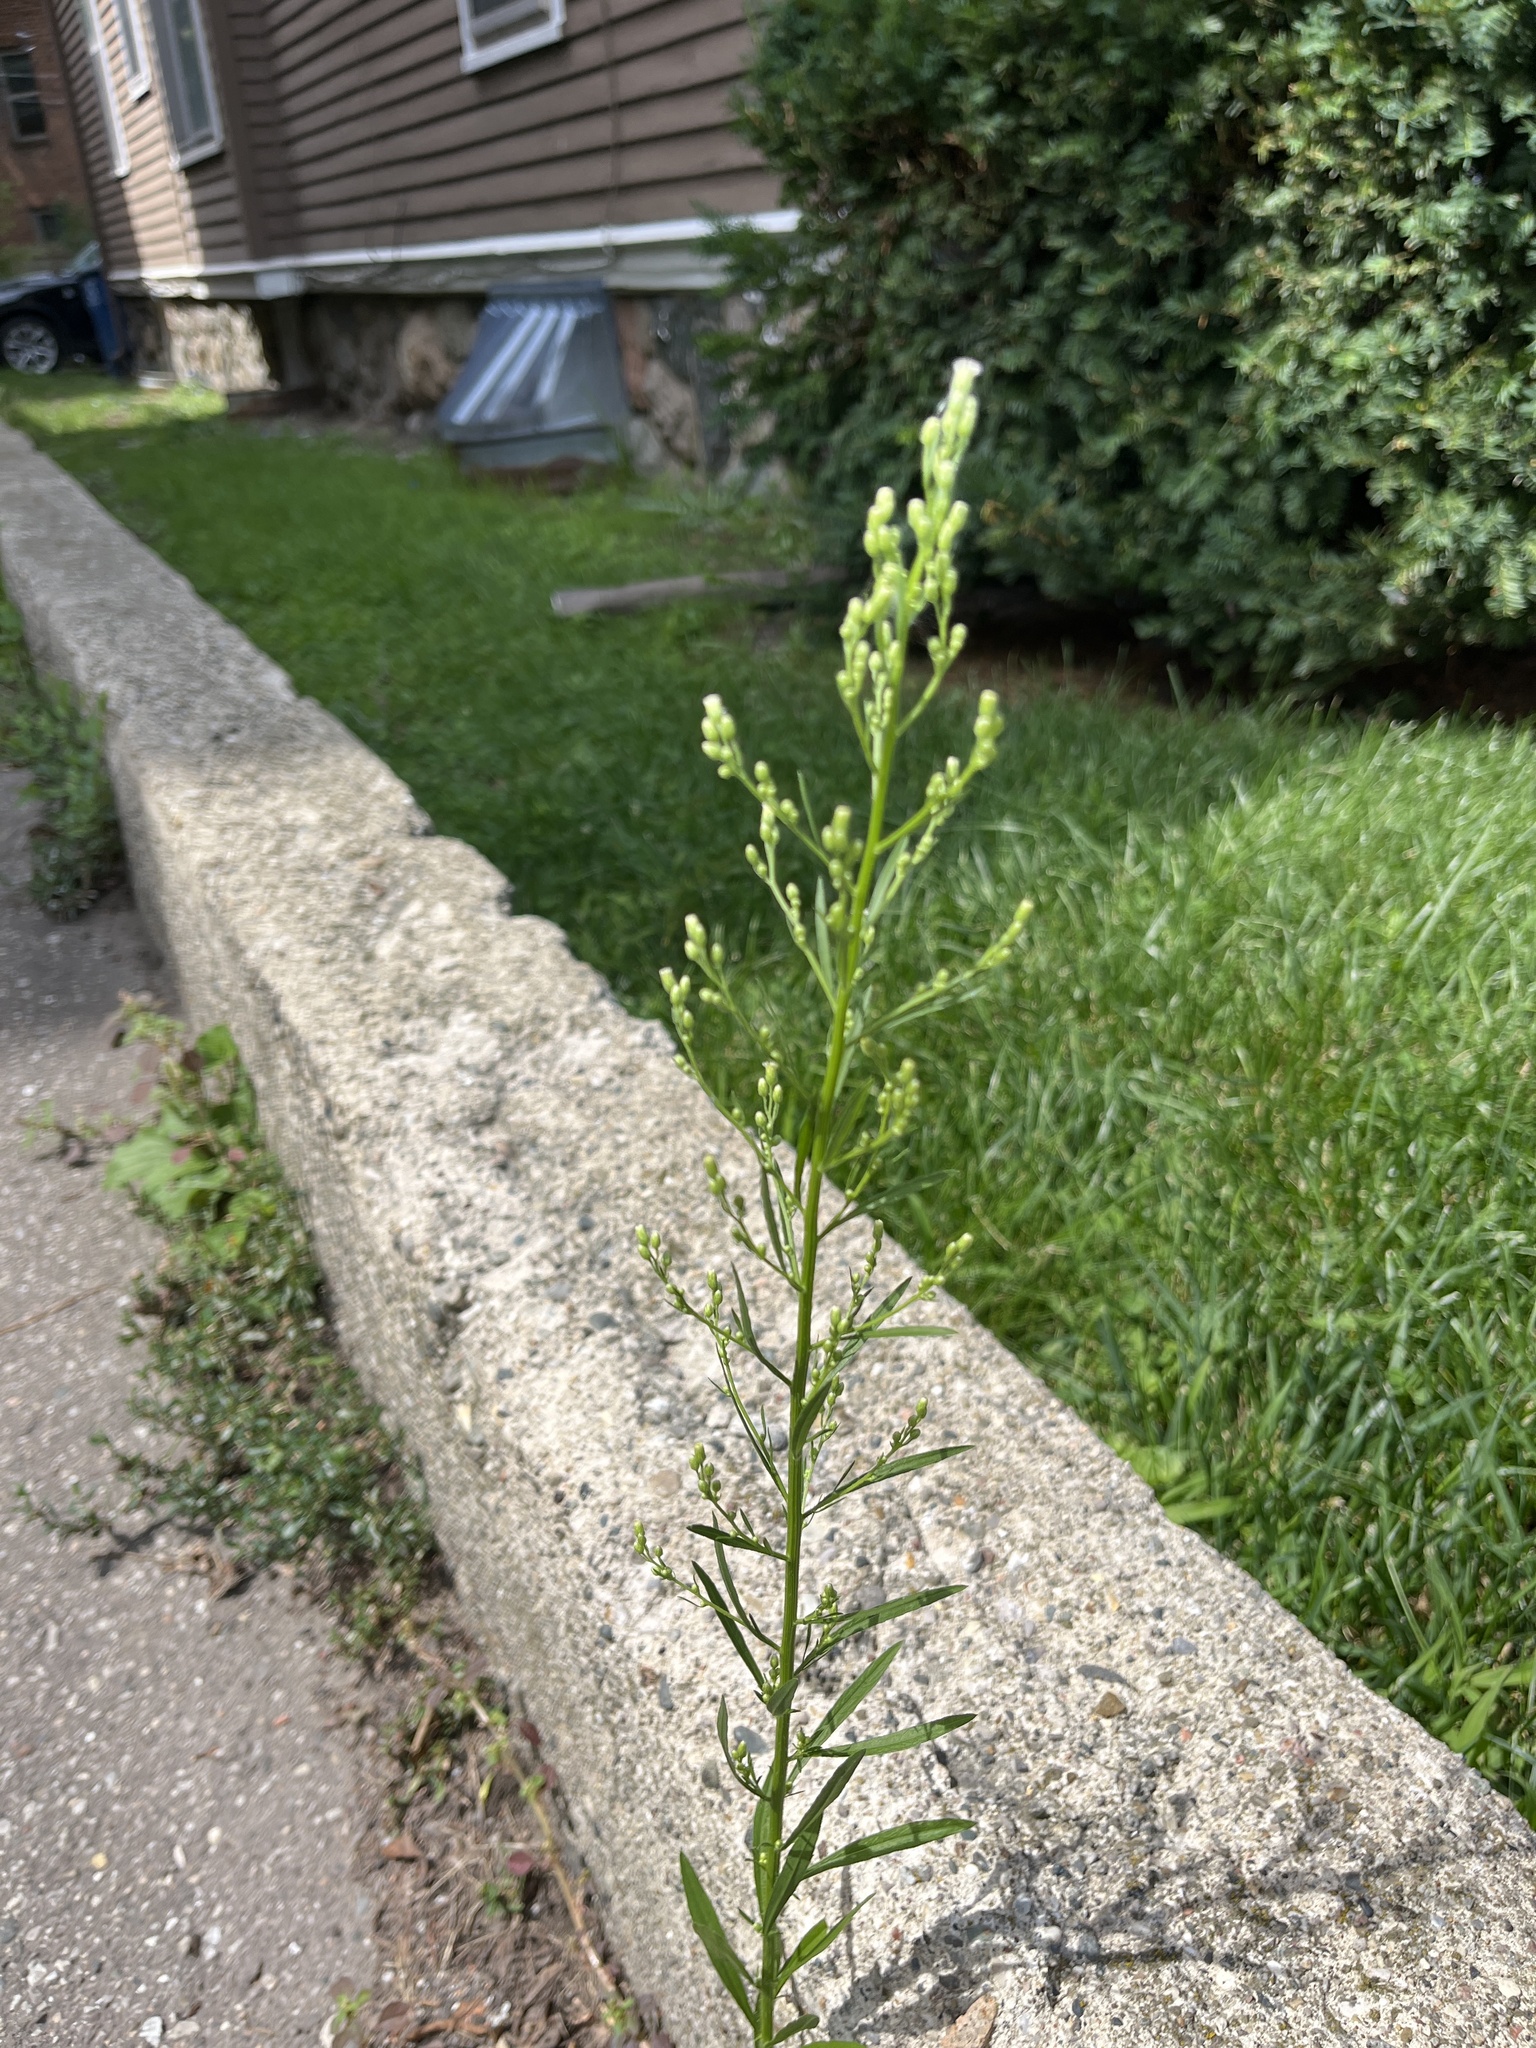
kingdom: Plantae
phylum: Tracheophyta
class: Magnoliopsida
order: Asterales
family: Asteraceae
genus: Erigeron
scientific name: Erigeron canadensis
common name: Canadian fleabane
